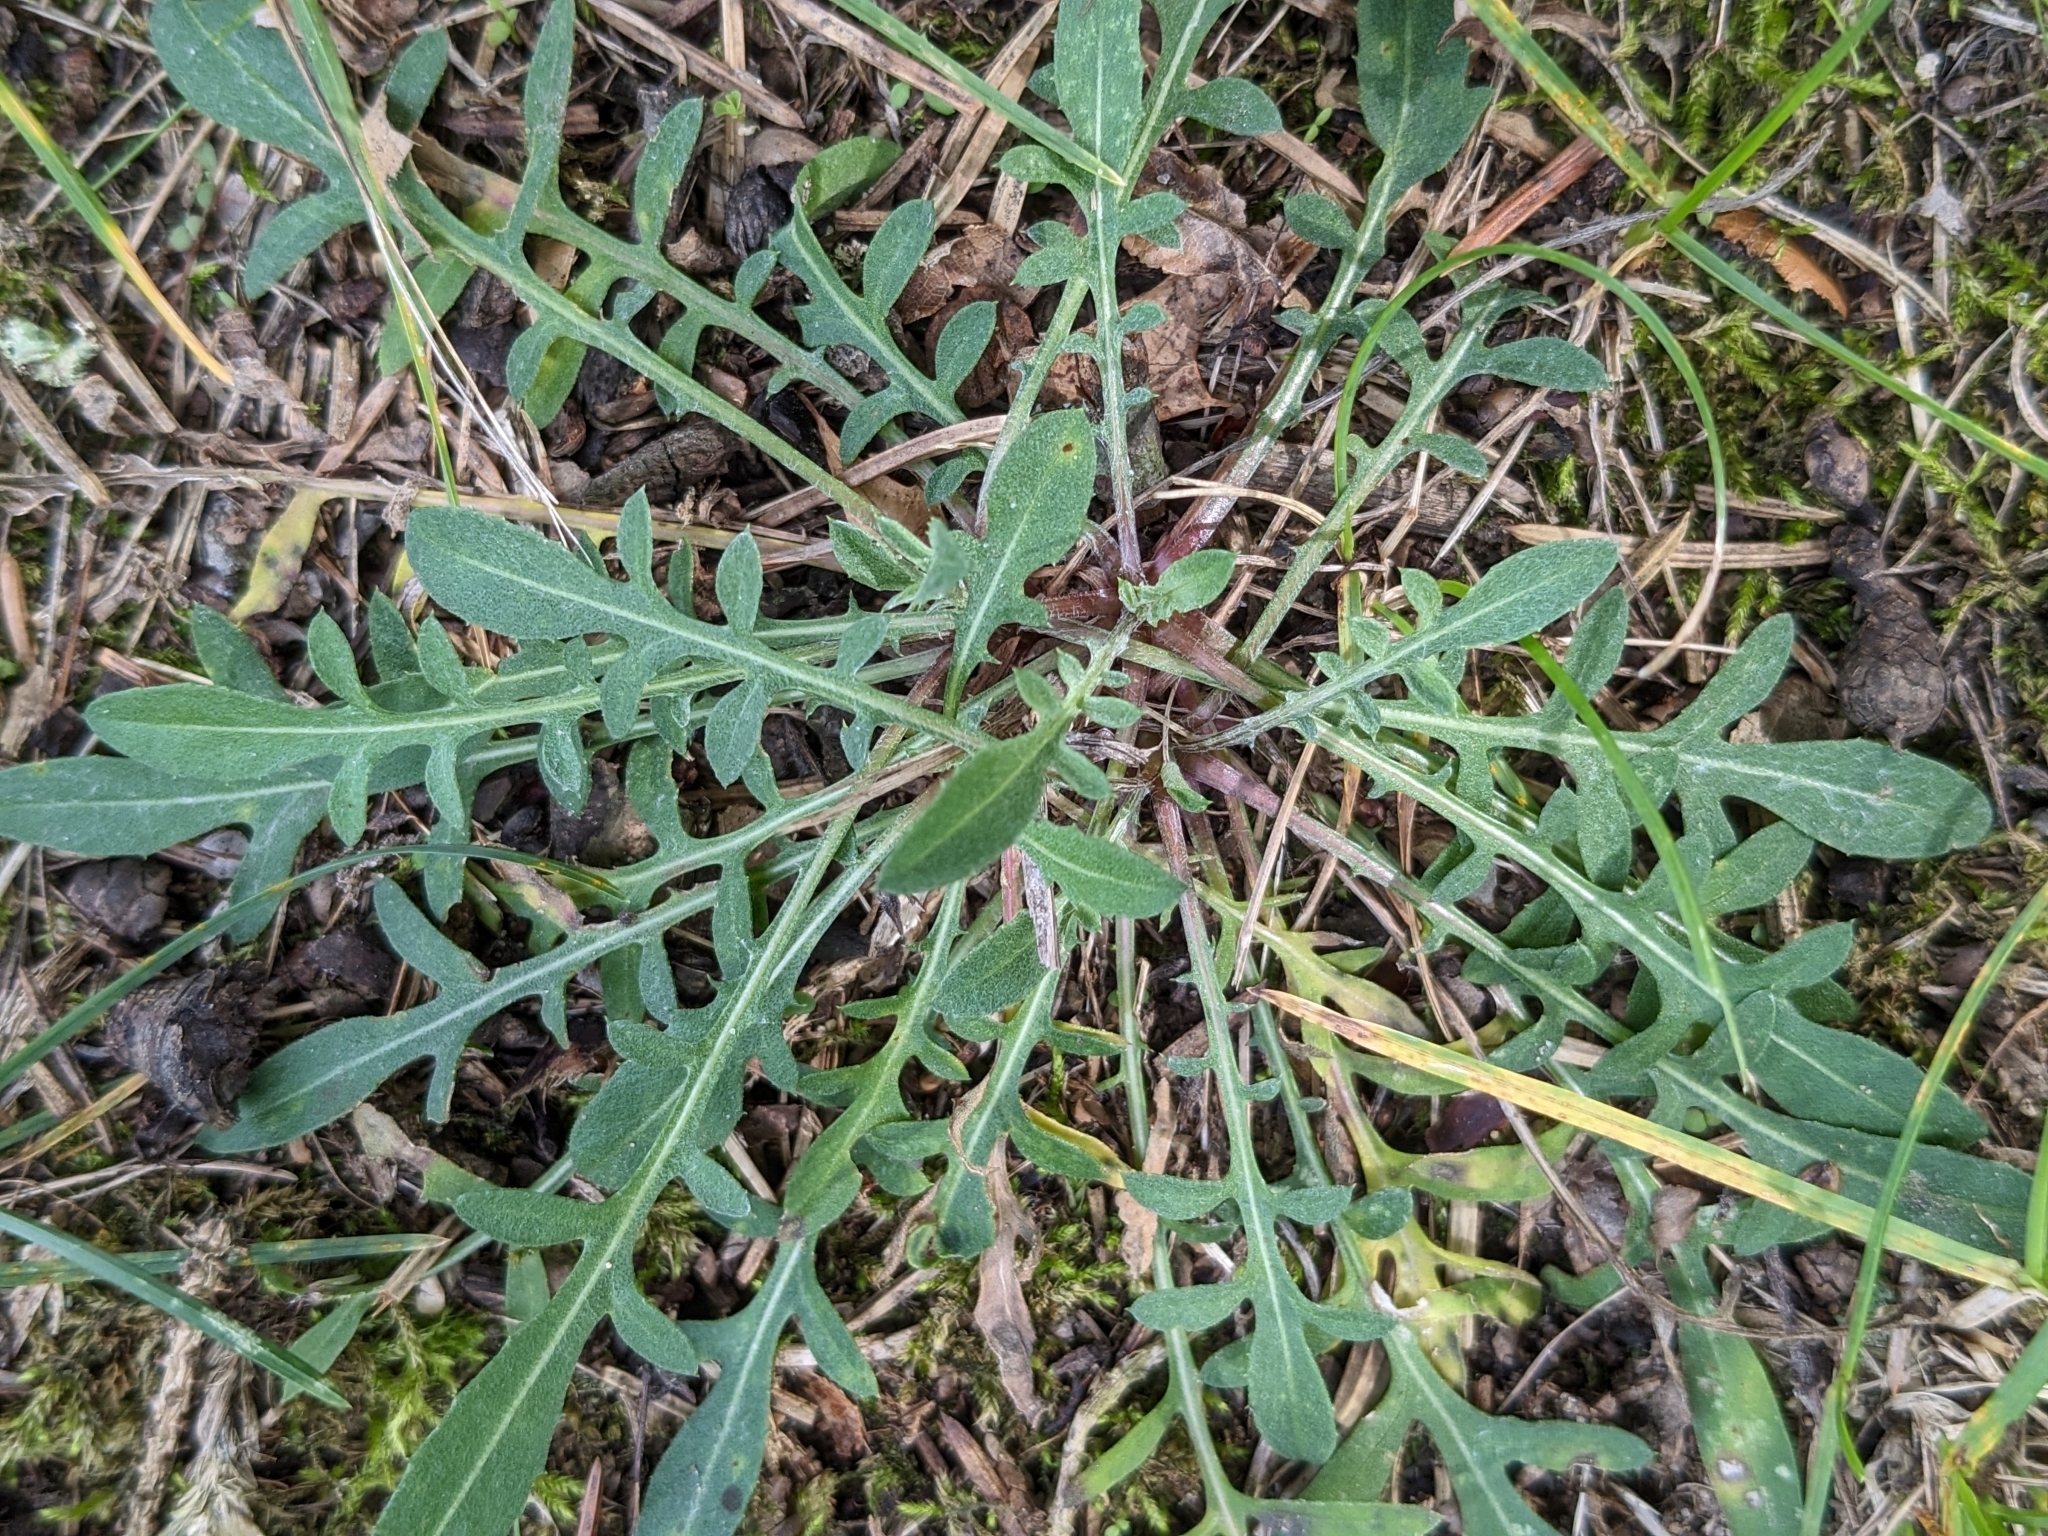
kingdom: Plantae
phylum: Tracheophyta
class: Magnoliopsida
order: Asterales
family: Asteraceae
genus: Centaurea
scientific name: Centaurea stoebe
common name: Spotted knapweed
